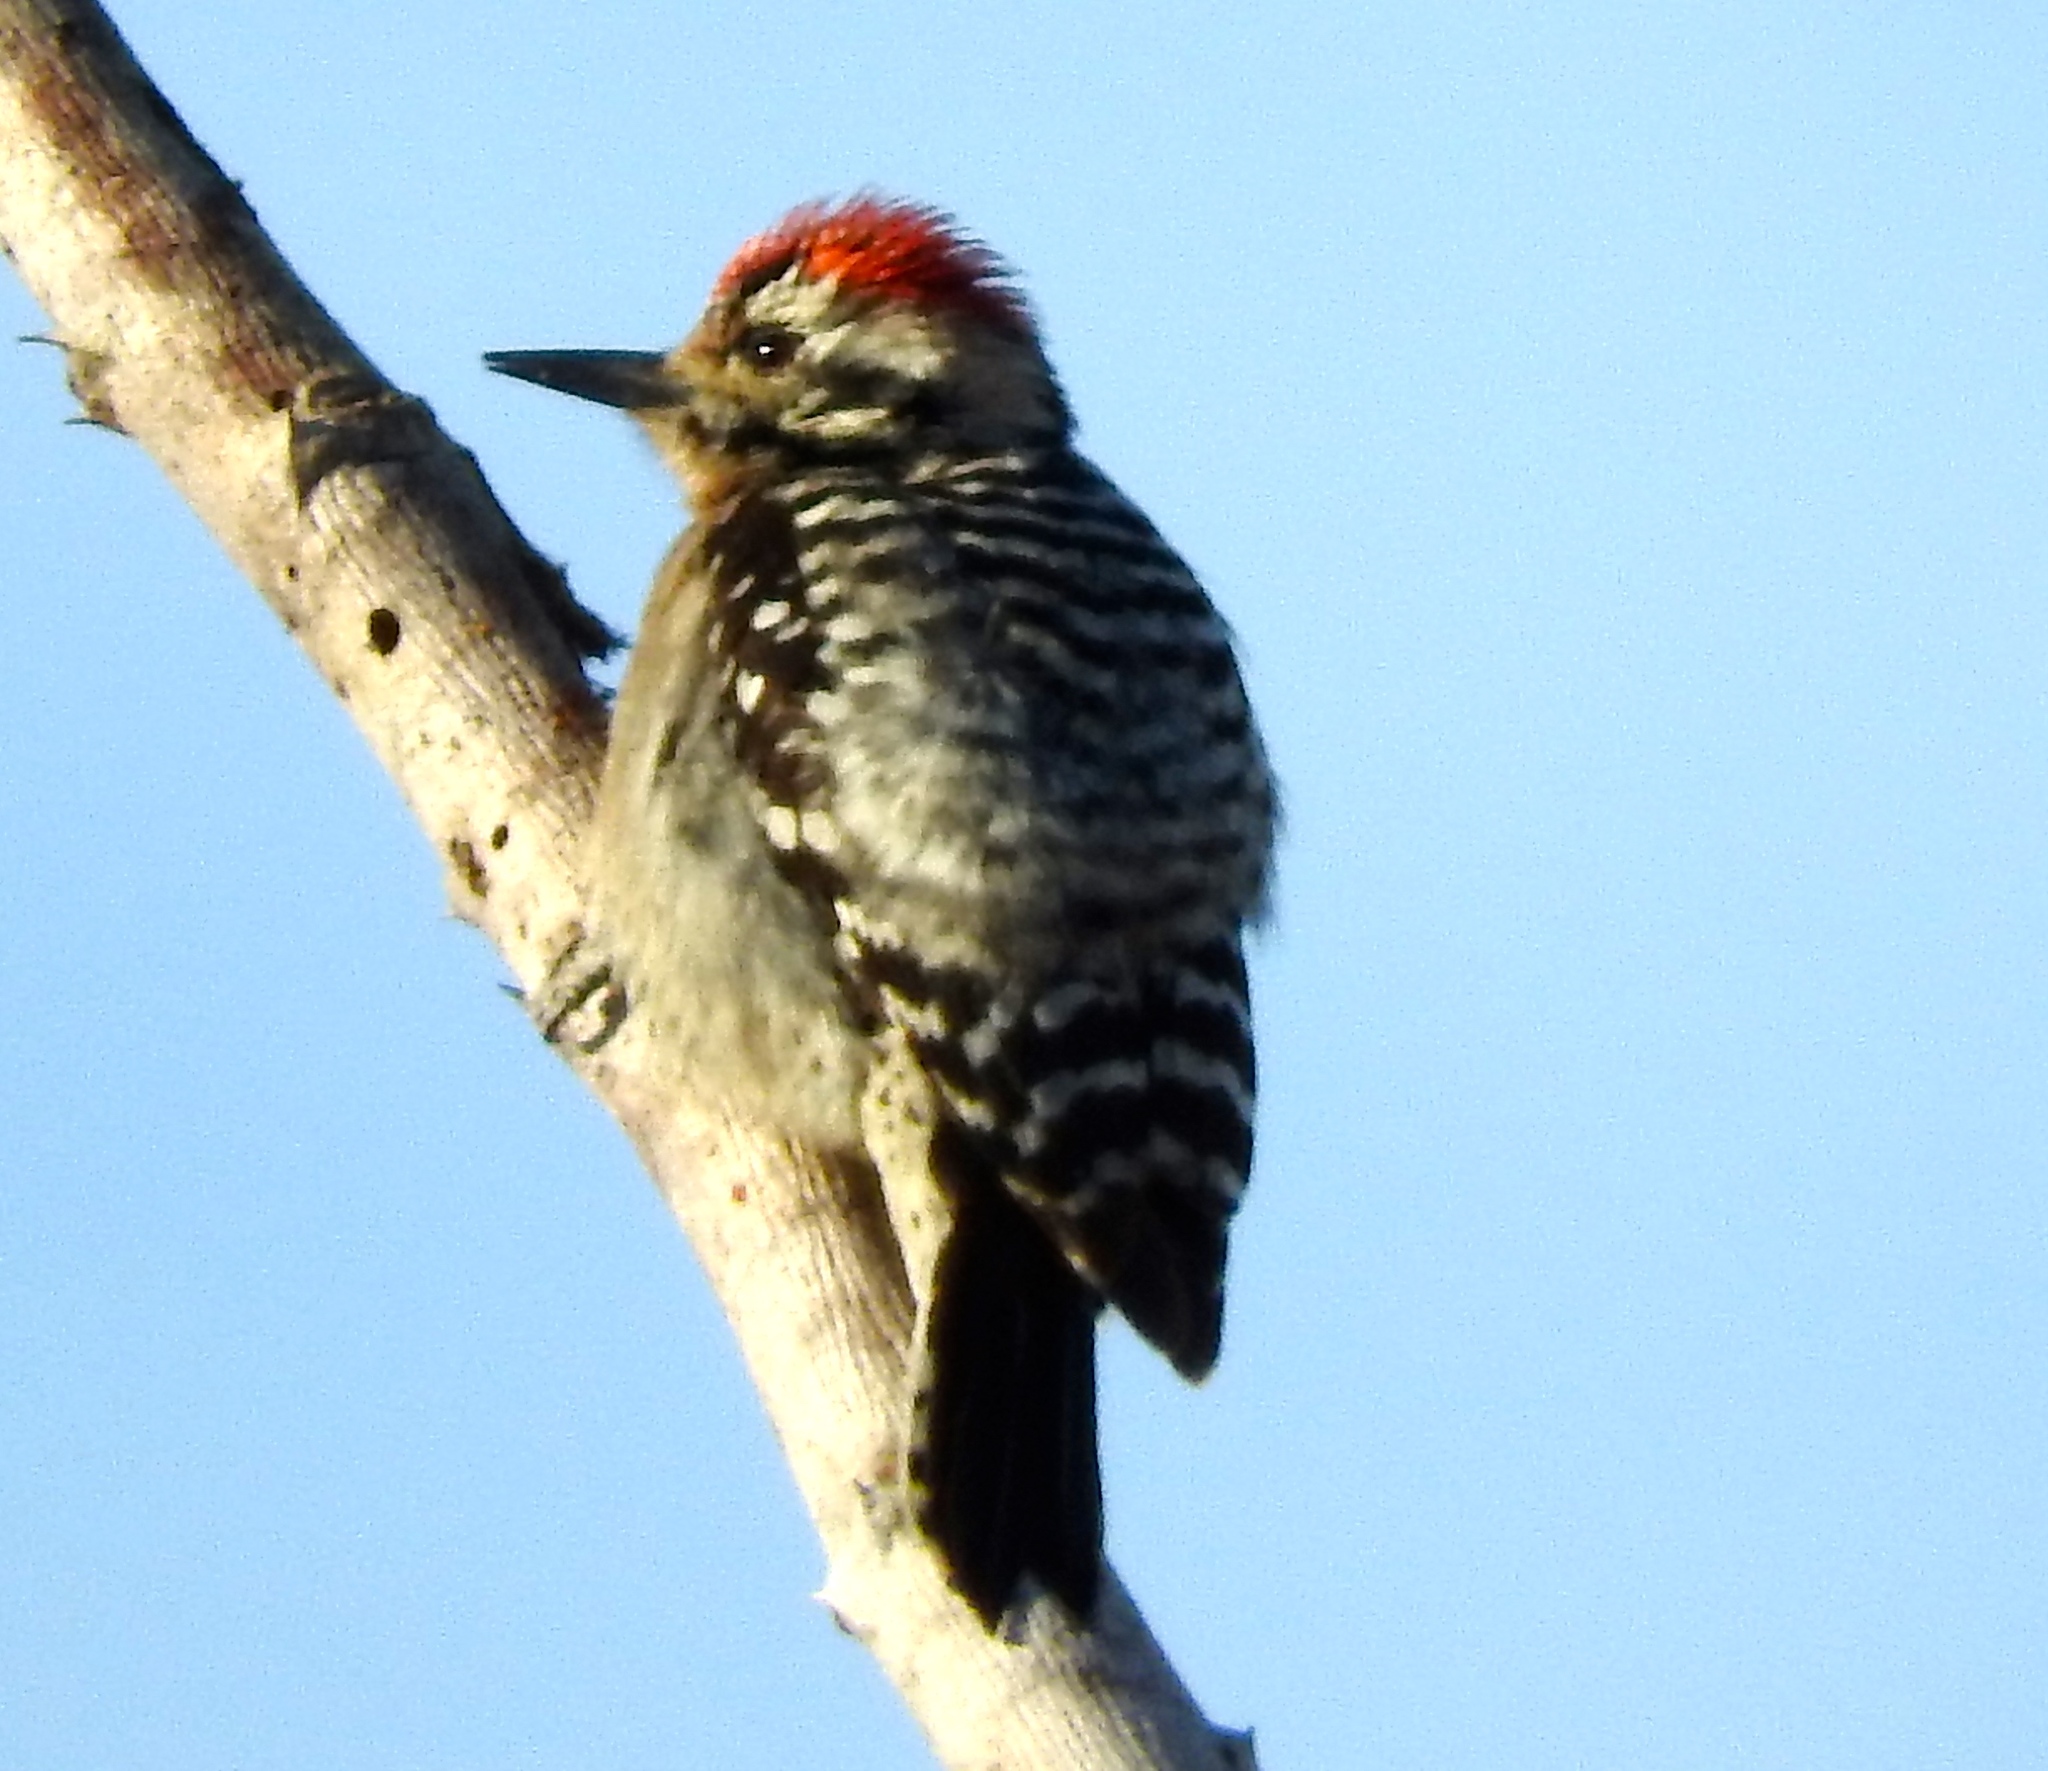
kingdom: Animalia
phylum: Chordata
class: Aves
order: Piciformes
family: Picidae
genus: Dryobates
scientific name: Dryobates scalaris
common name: Ladder-backed woodpecker
